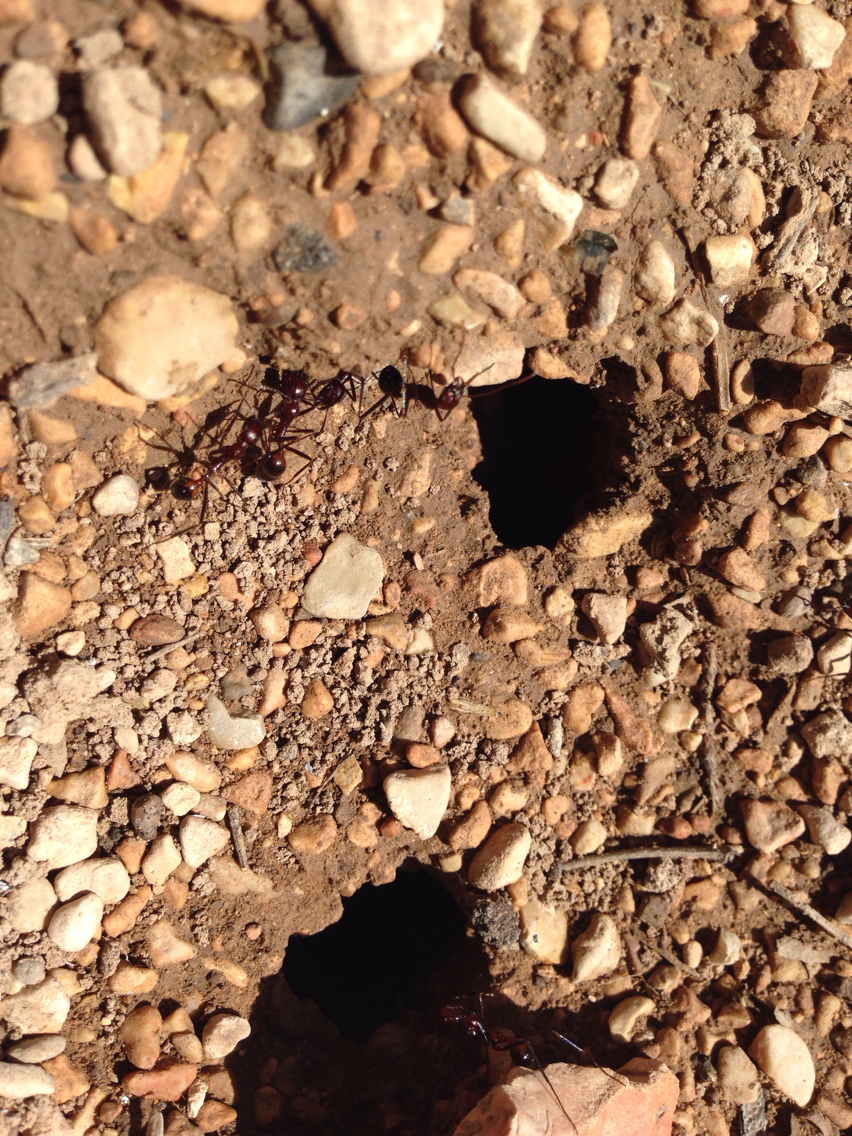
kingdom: Animalia
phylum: Arthropoda
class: Insecta
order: Hymenoptera
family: Formicidae
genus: Novomessor
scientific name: Novomessor cockerelli
